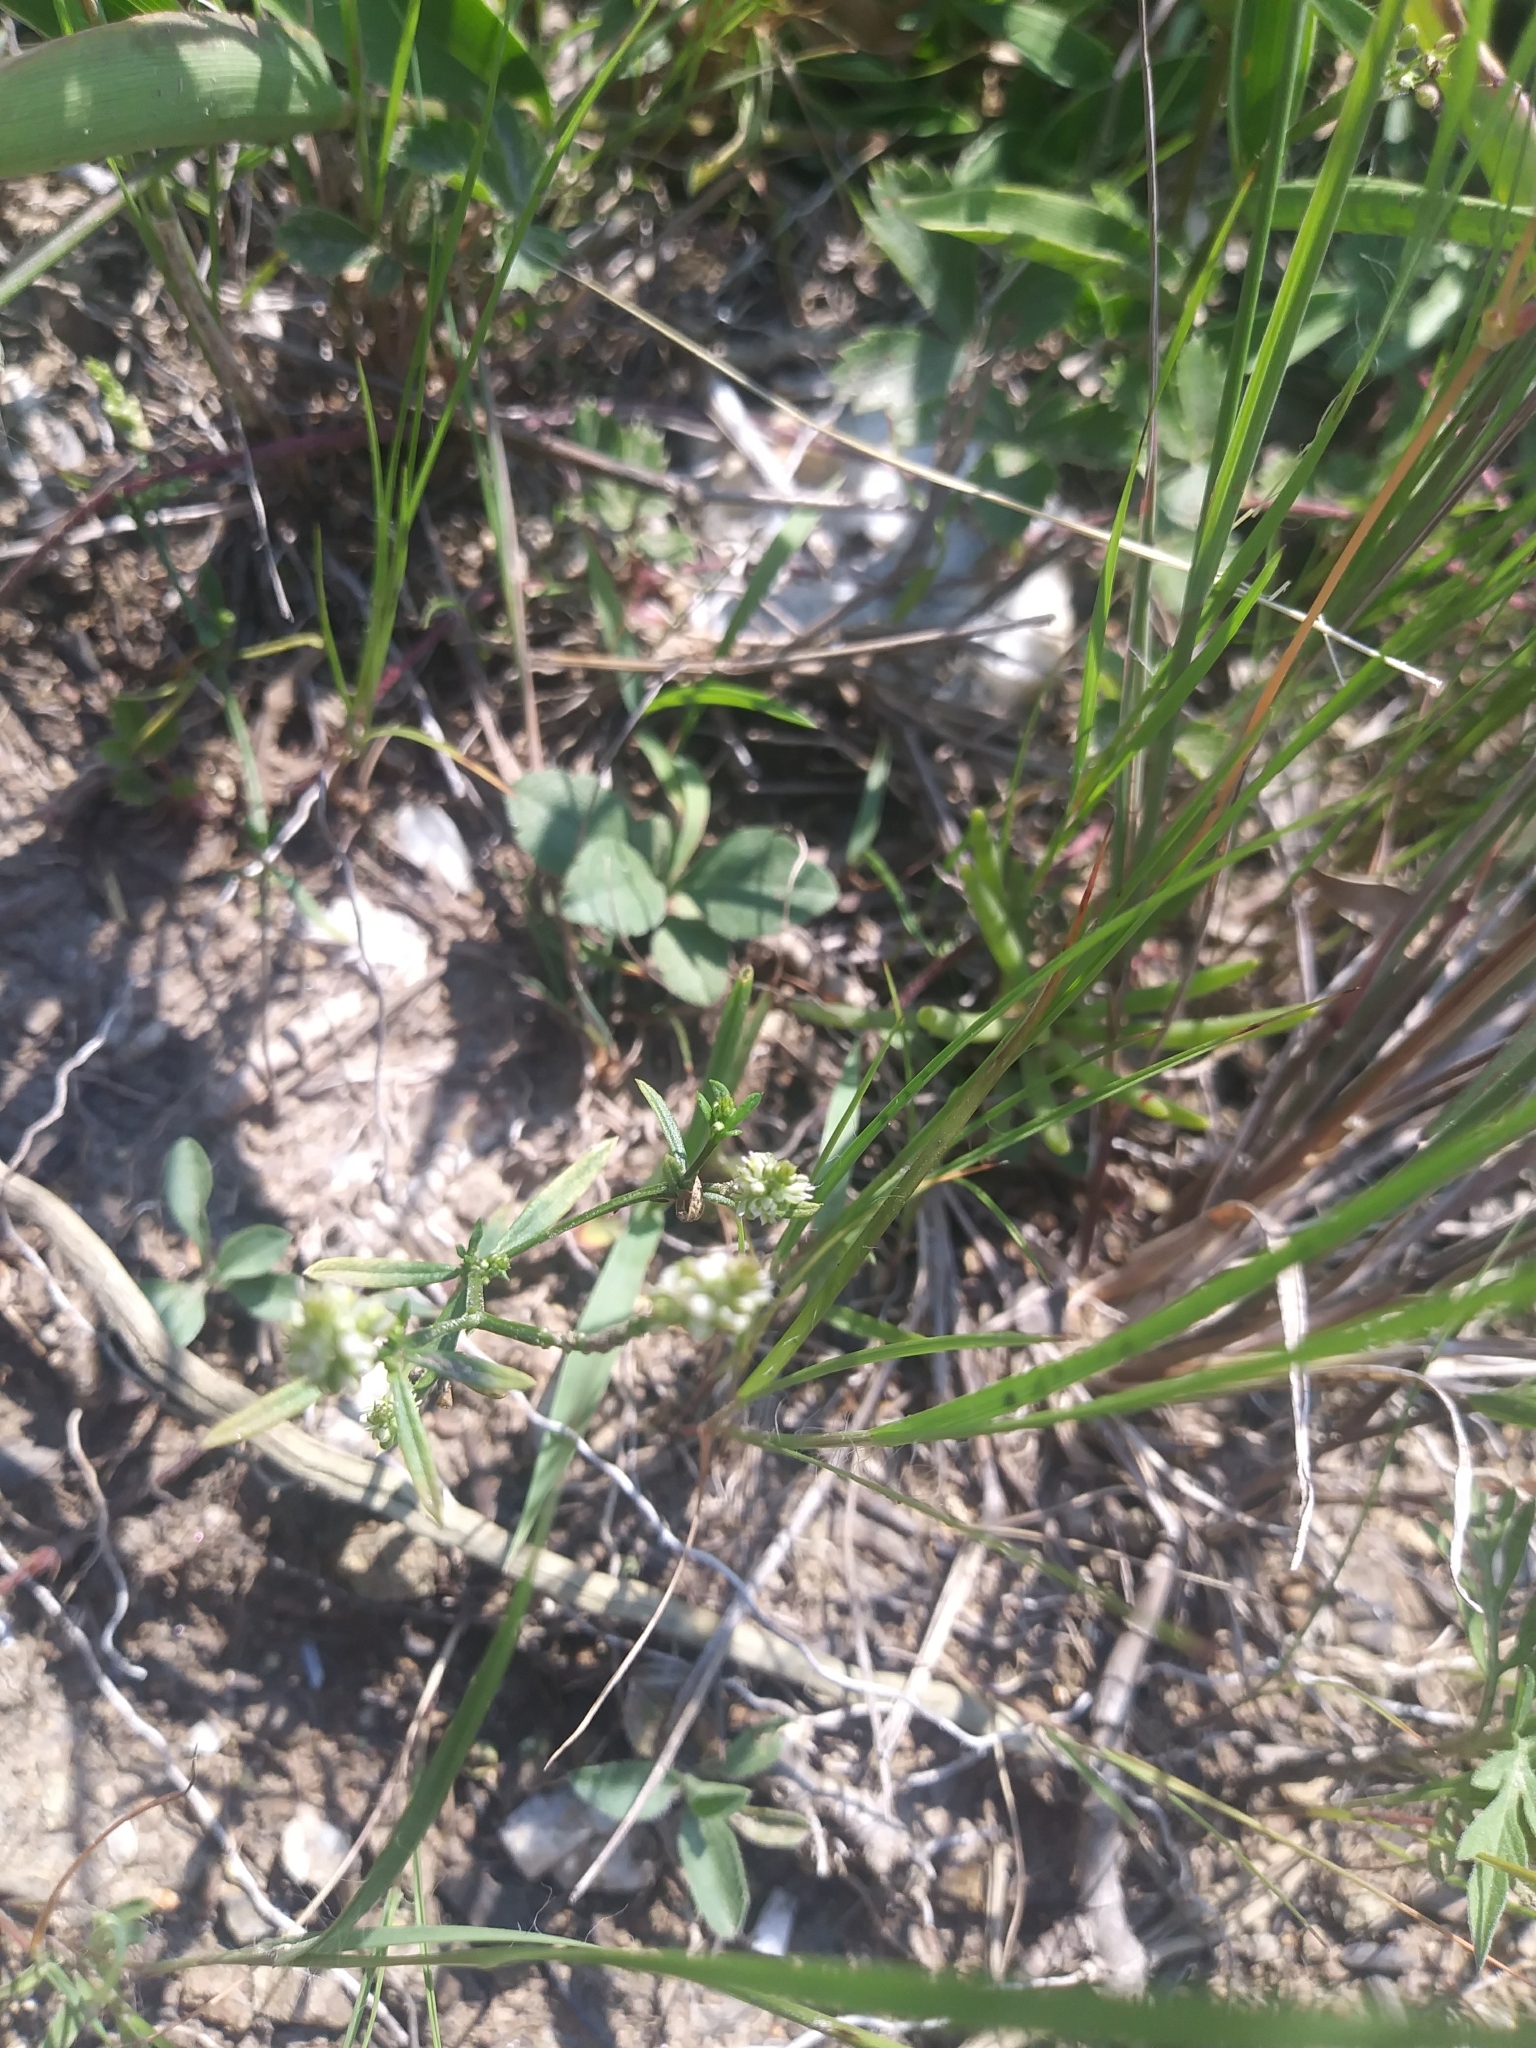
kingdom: Plantae
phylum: Tracheophyta
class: Magnoliopsida
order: Fabales
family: Polygalaceae
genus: Polygala
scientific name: Polygala verticillata
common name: Whorl milkwort
